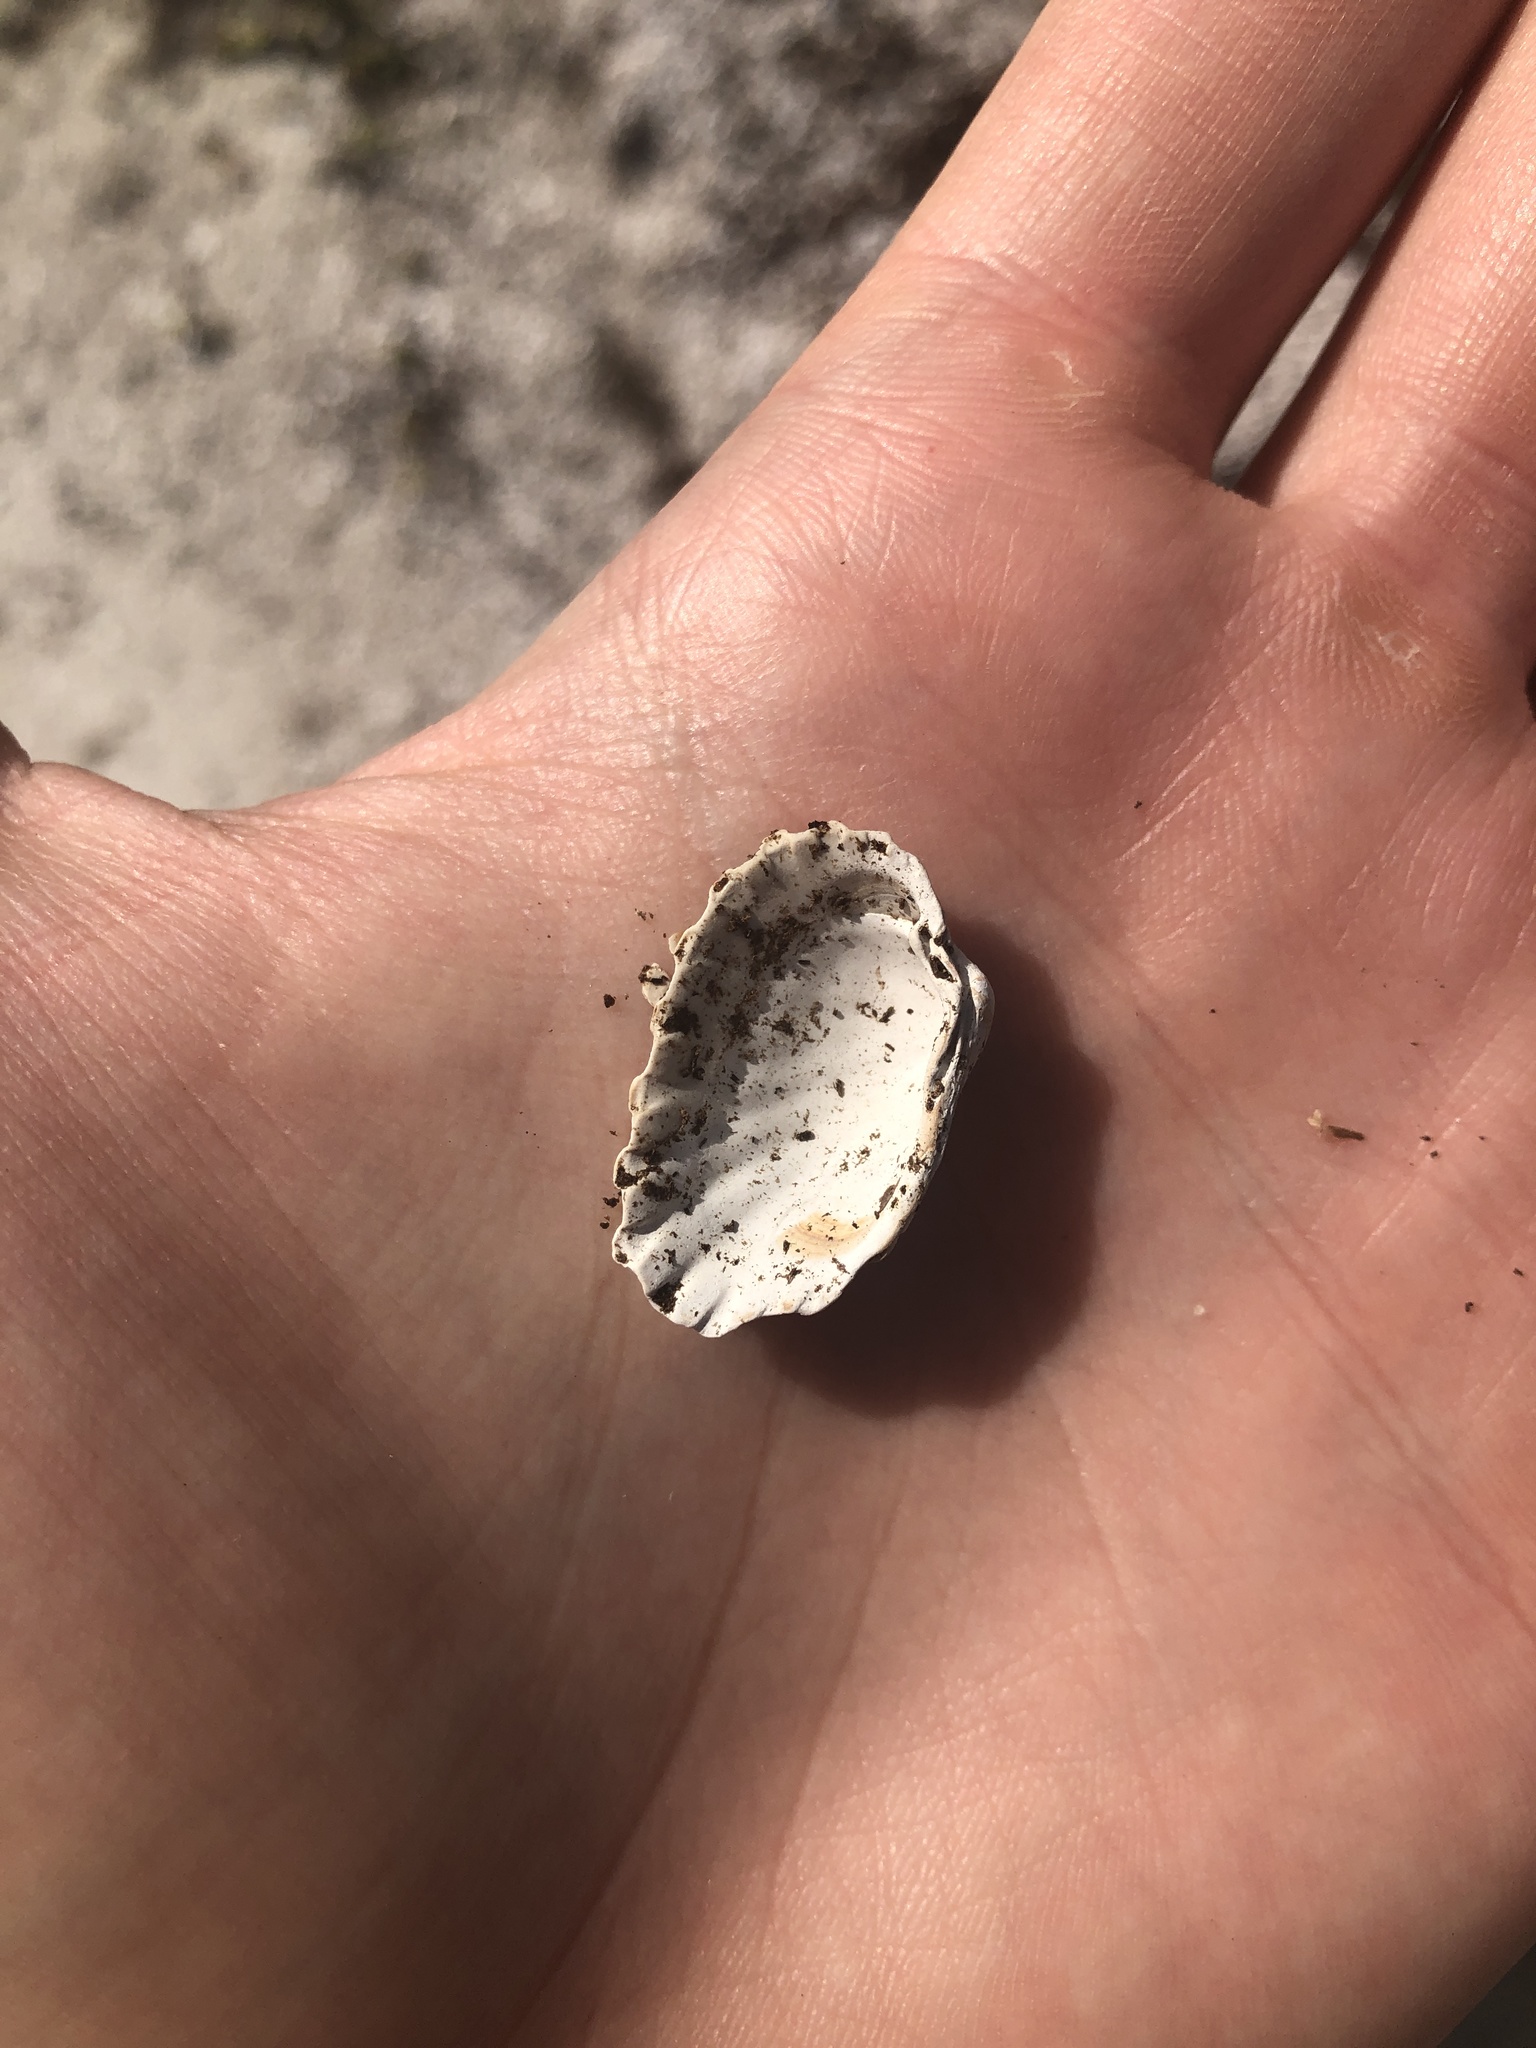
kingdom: Animalia
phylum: Mollusca
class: Bivalvia
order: Carditida
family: Carditidae
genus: Cardites
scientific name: Cardites floridanus
